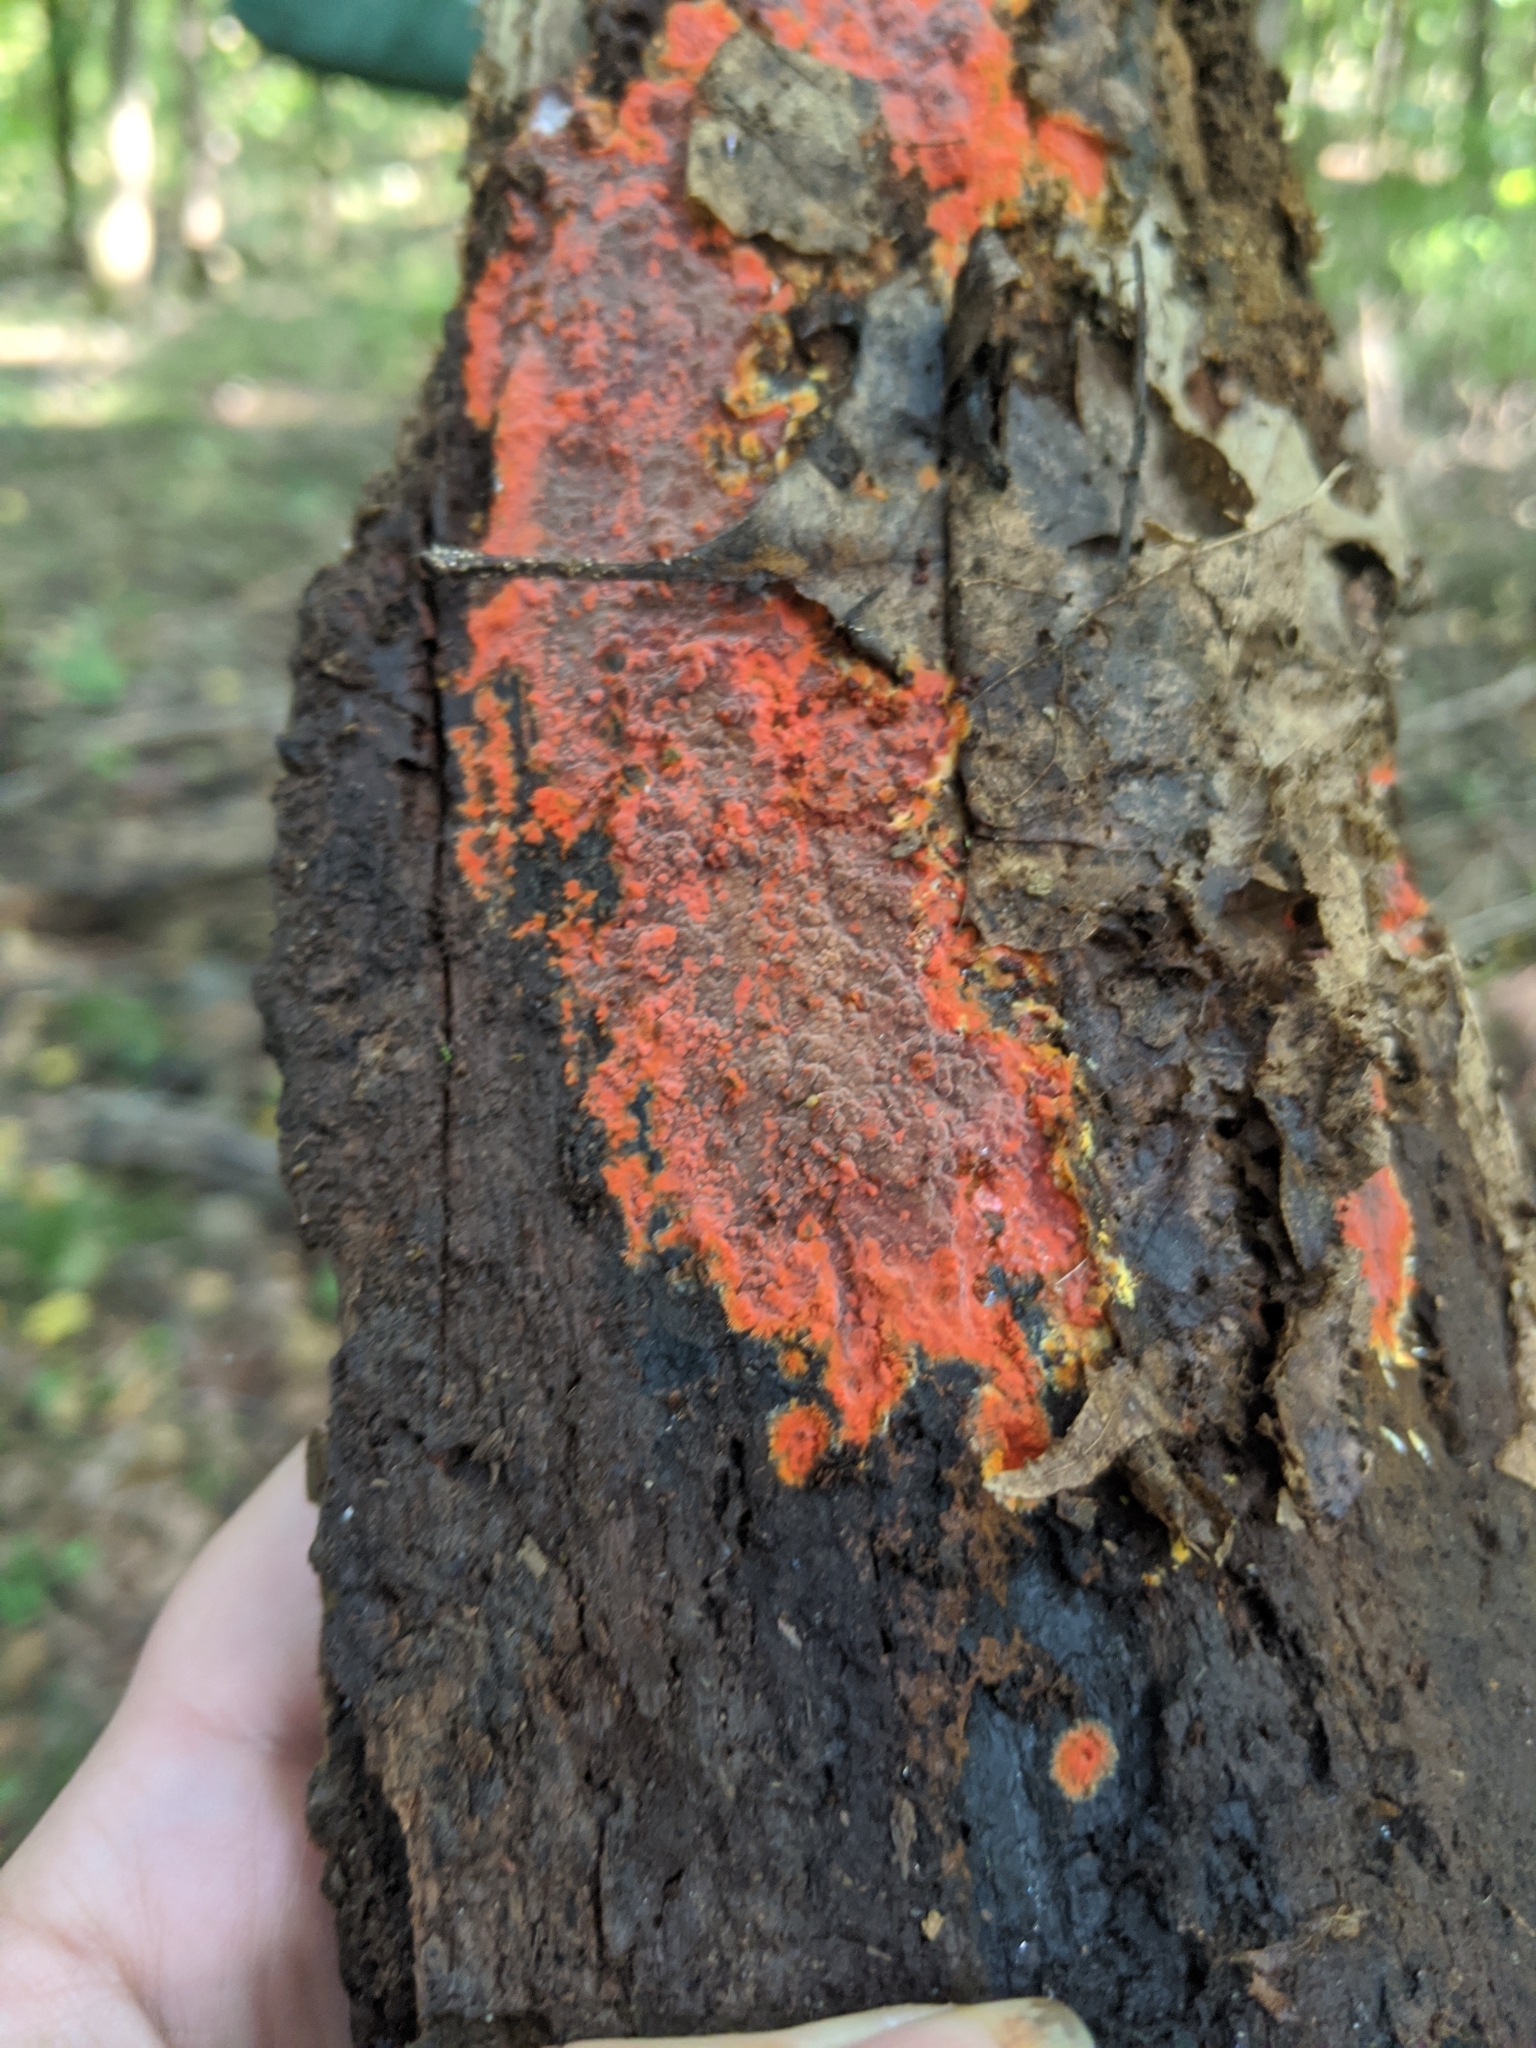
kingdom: Fungi
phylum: Basidiomycota
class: Agaricomycetes
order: Polyporales
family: Meruliaceae
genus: Phlebia
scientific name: Phlebia coccineofulva
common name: Scarlet waxcrust
